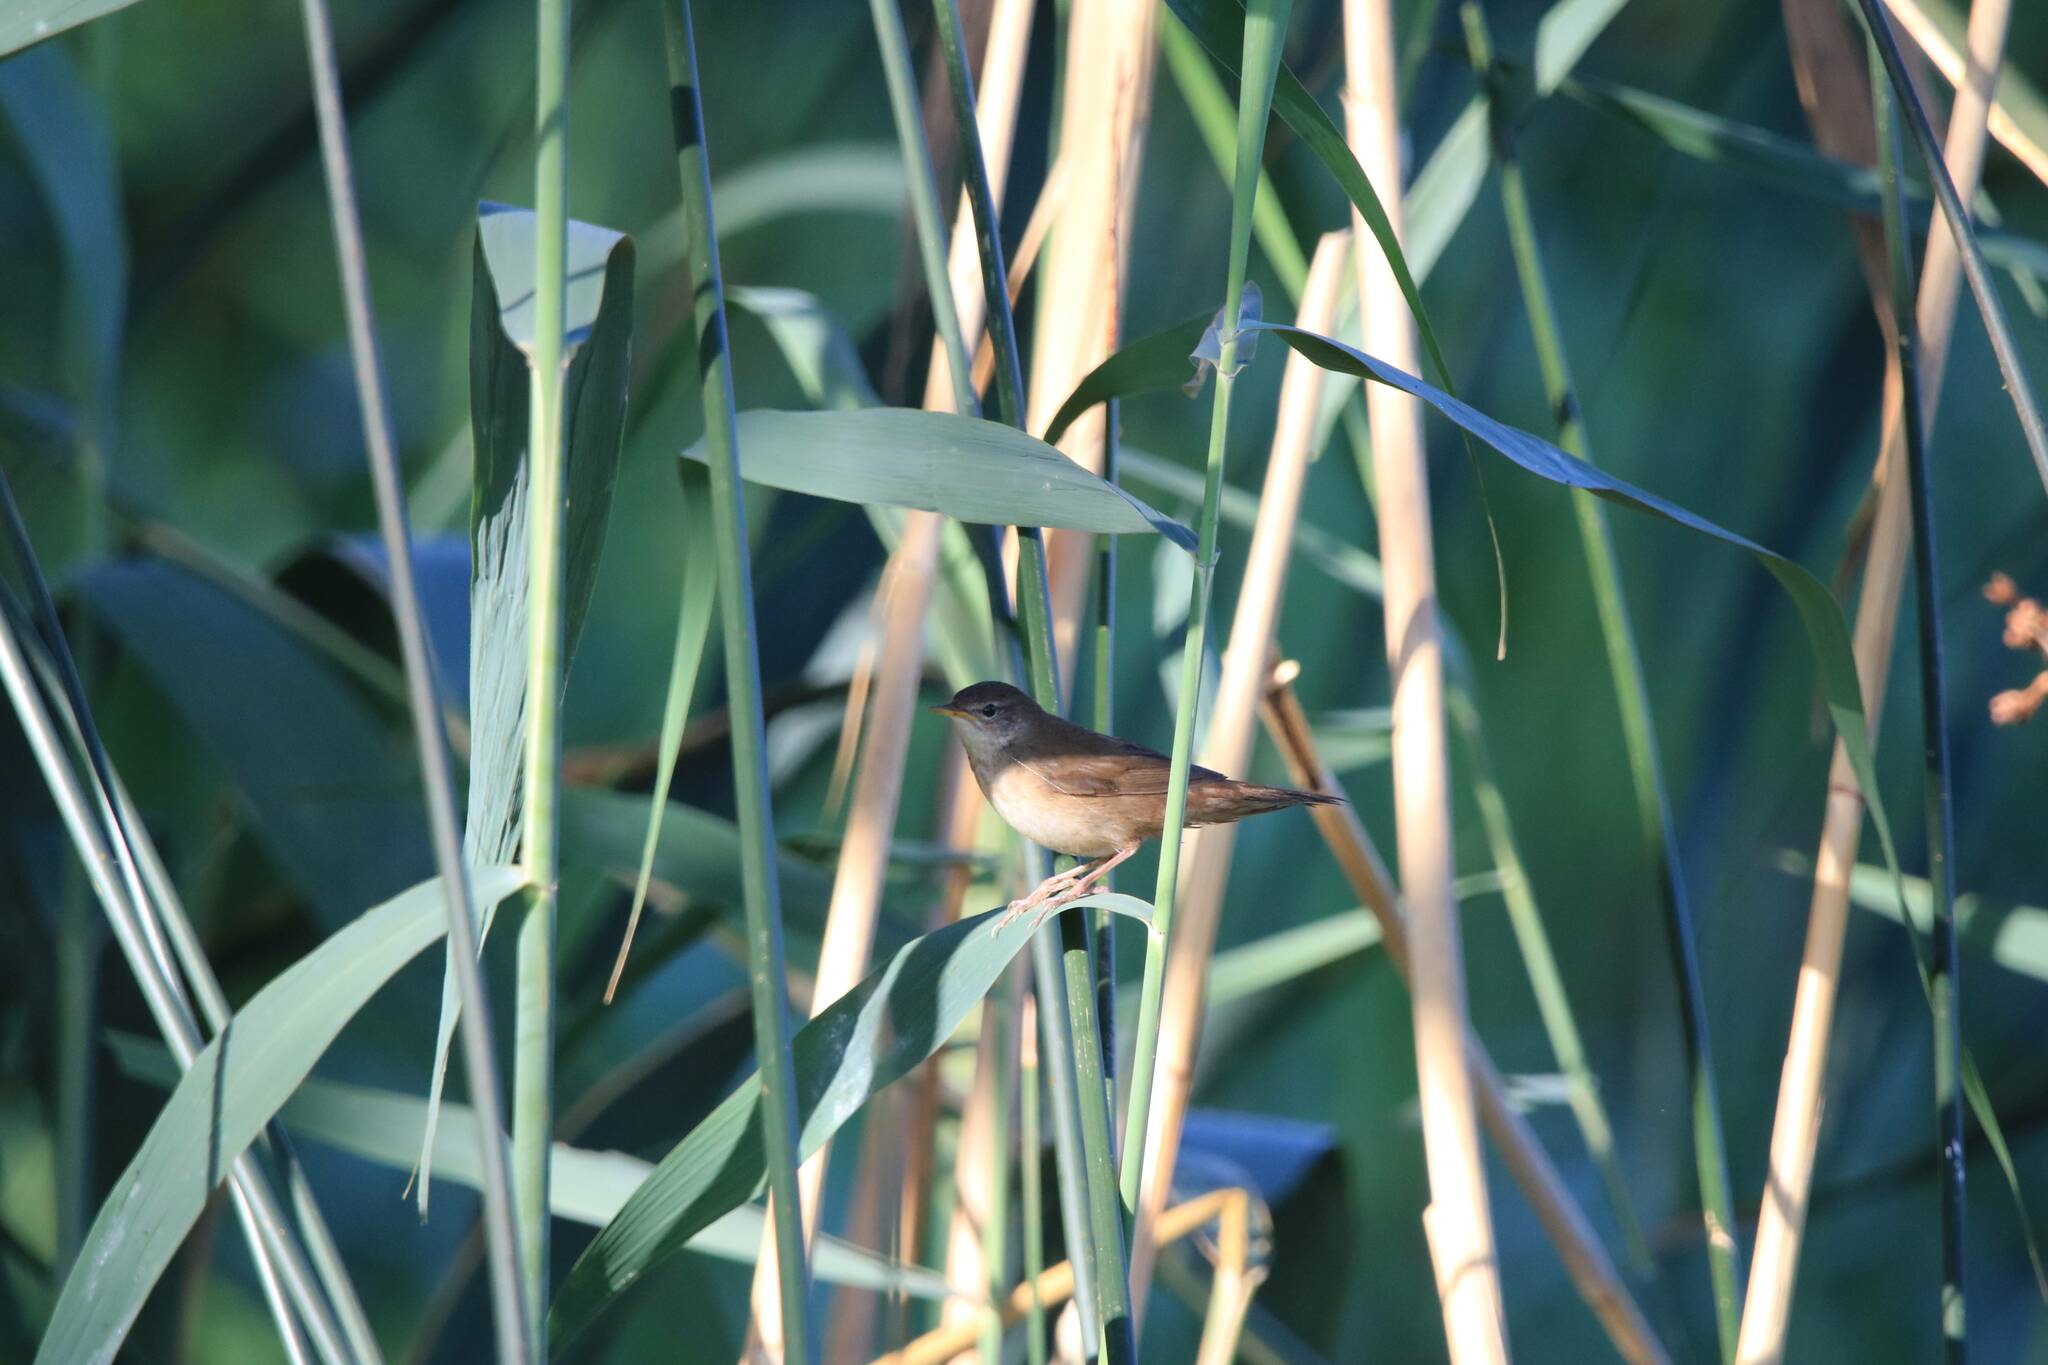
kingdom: Animalia
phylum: Chordata
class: Aves
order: Passeriformes
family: Locustellidae
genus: Locustella
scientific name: Locustella luscinioides
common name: Savi's warbler
